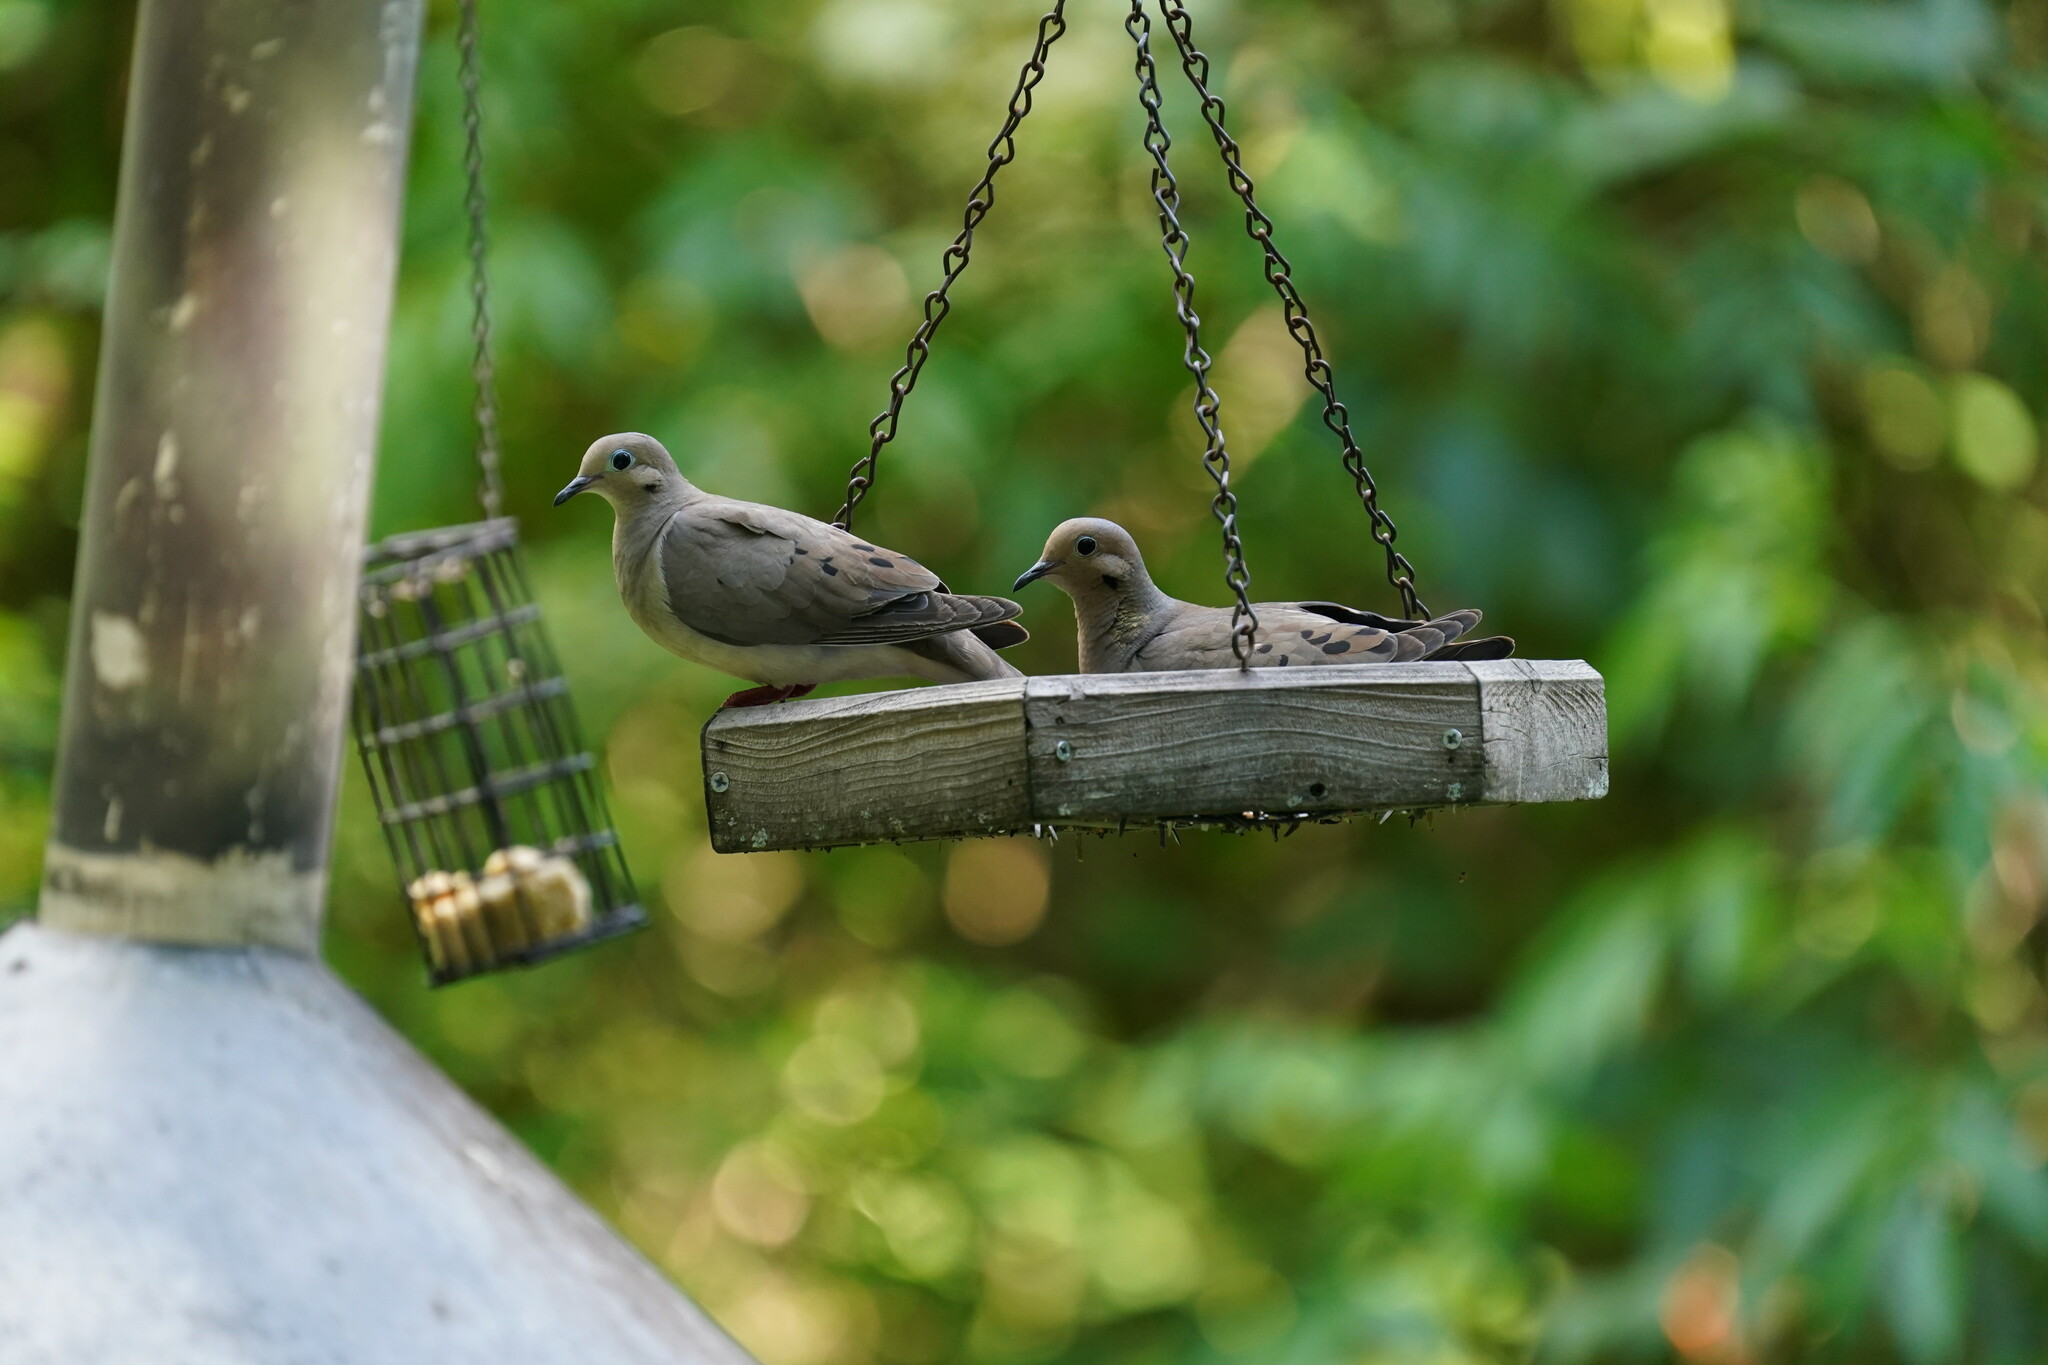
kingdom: Animalia
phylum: Chordata
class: Aves
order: Columbiformes
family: Columbidae
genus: Zenaida
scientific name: Zenaida macroura
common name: Mourning dove
